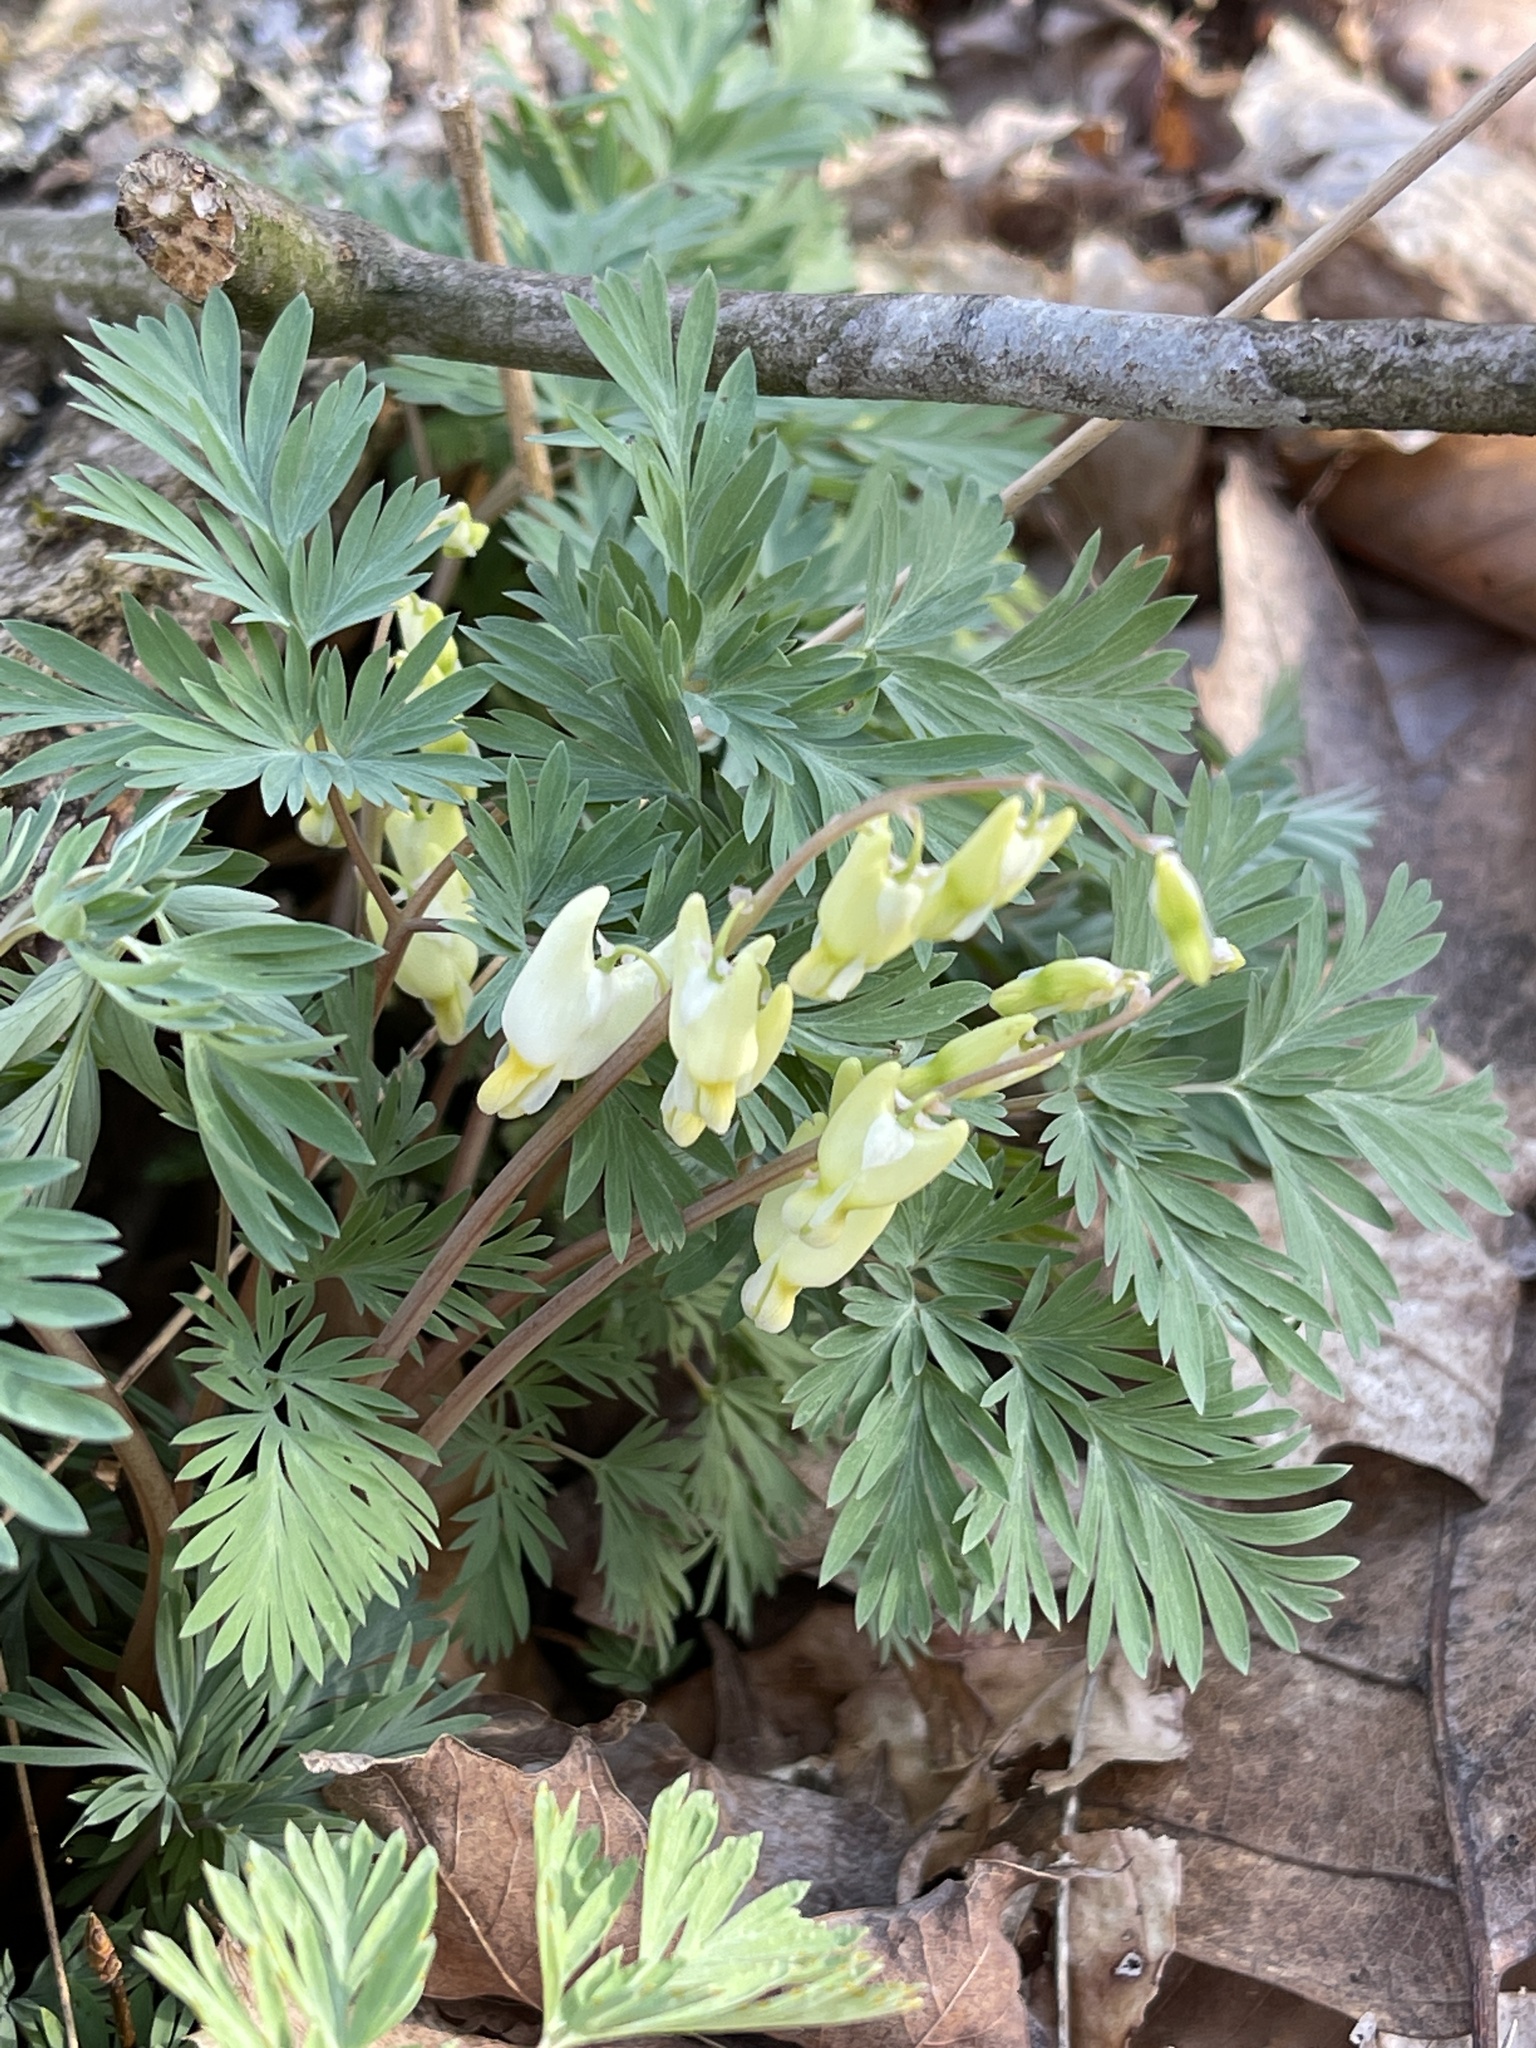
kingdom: Plantae
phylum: Tracheophyta
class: Magnoliopsida
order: Ranunculales
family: Papaveraceae
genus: Dicentra
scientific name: Dicentra cucullaria
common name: Dutchman's breeches
